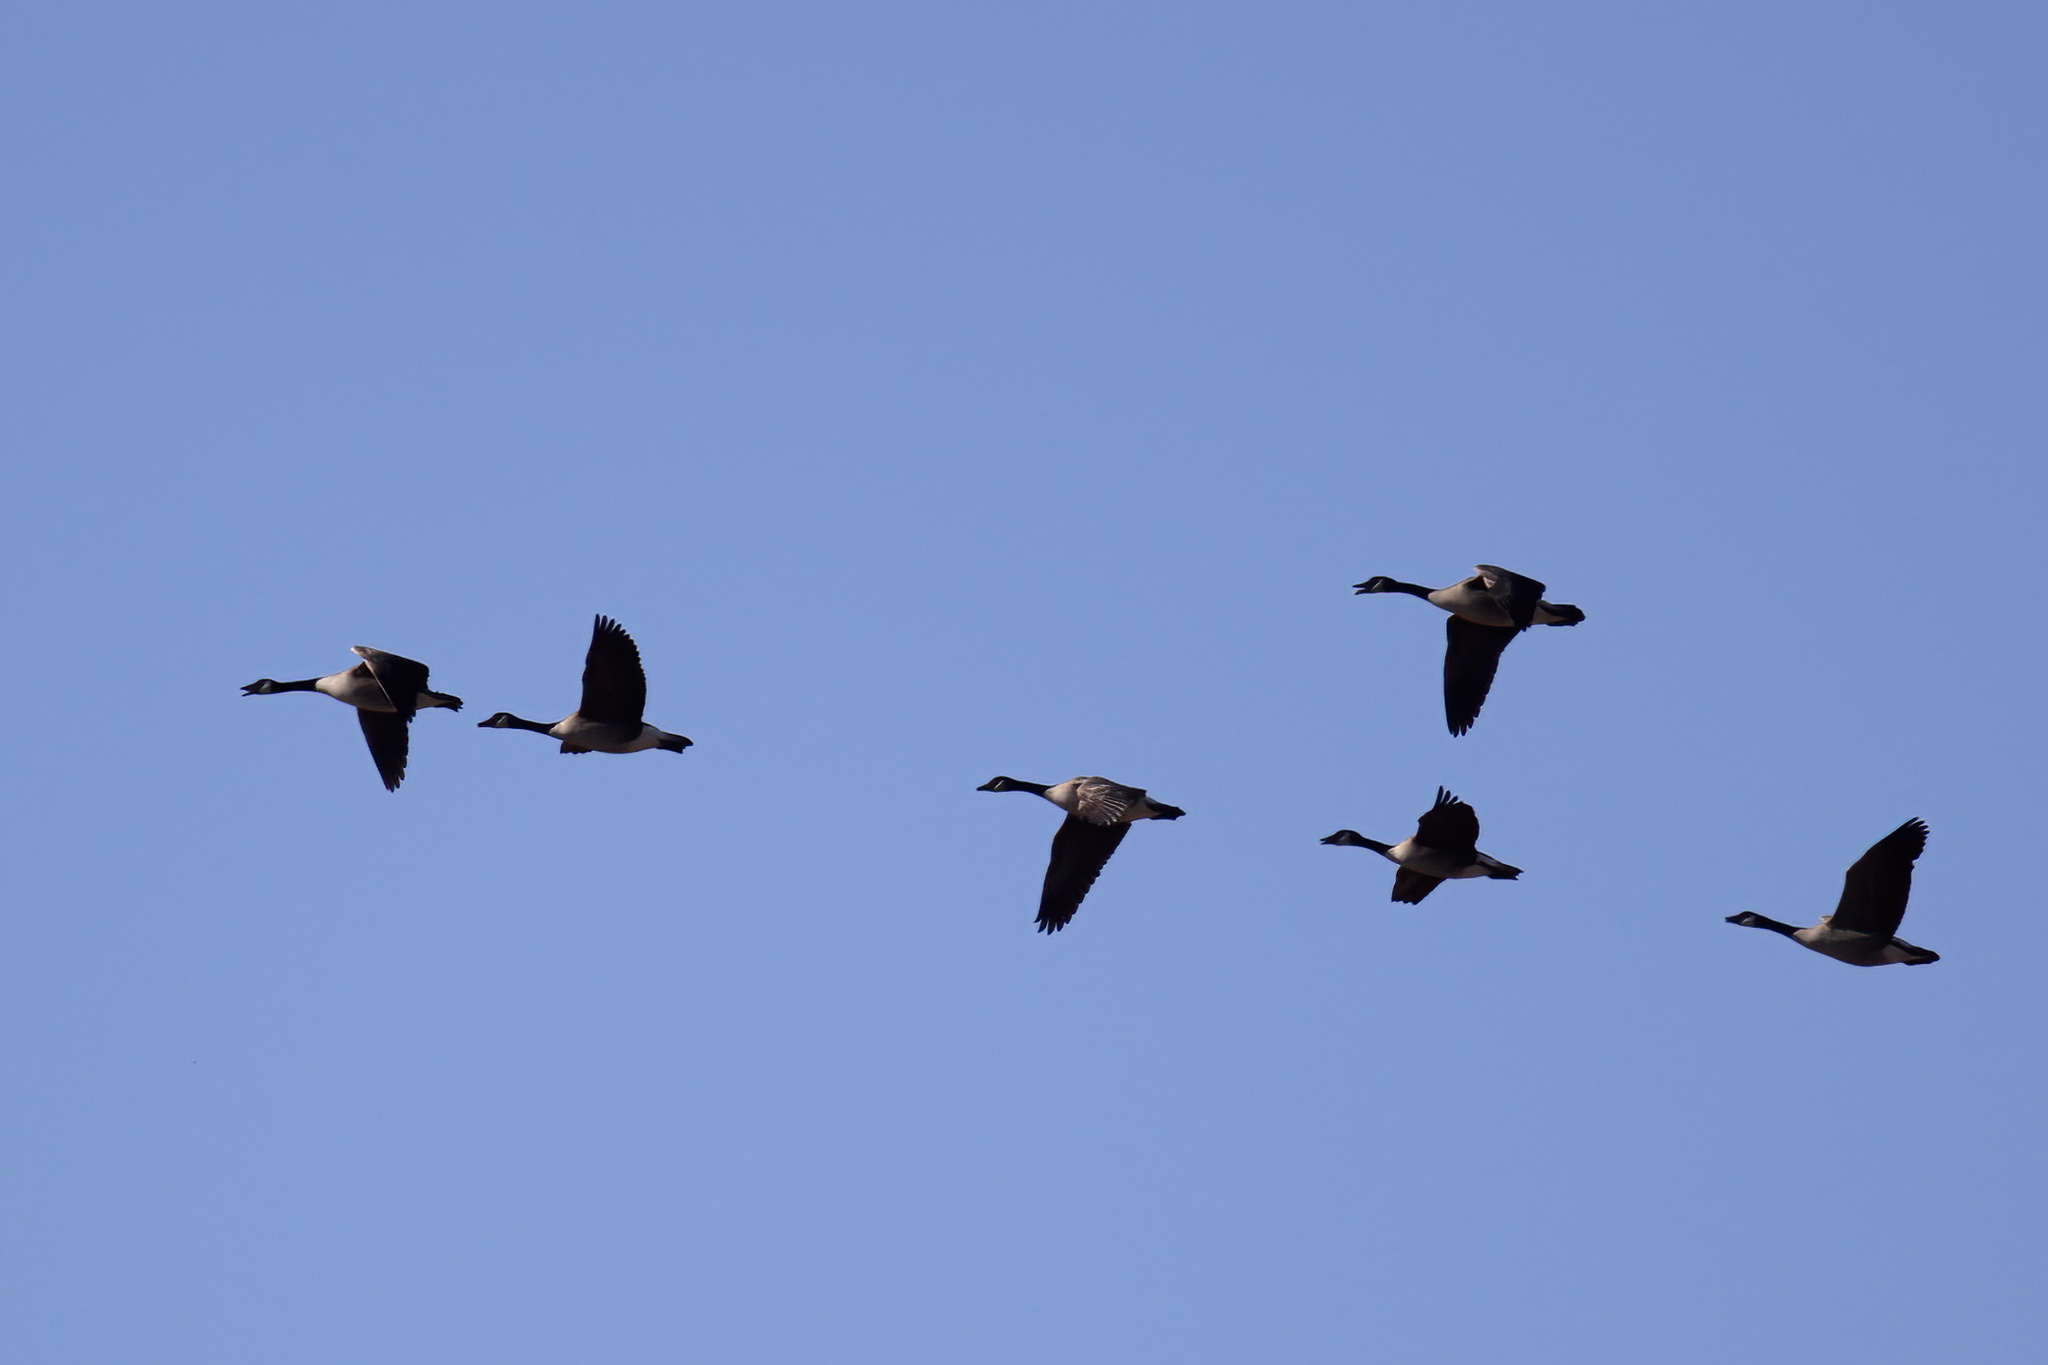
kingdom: Animalia
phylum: Chordata
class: Aves
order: Anseriformes
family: Anatidae
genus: Branta
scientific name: Branta canadensis
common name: Canada goose
